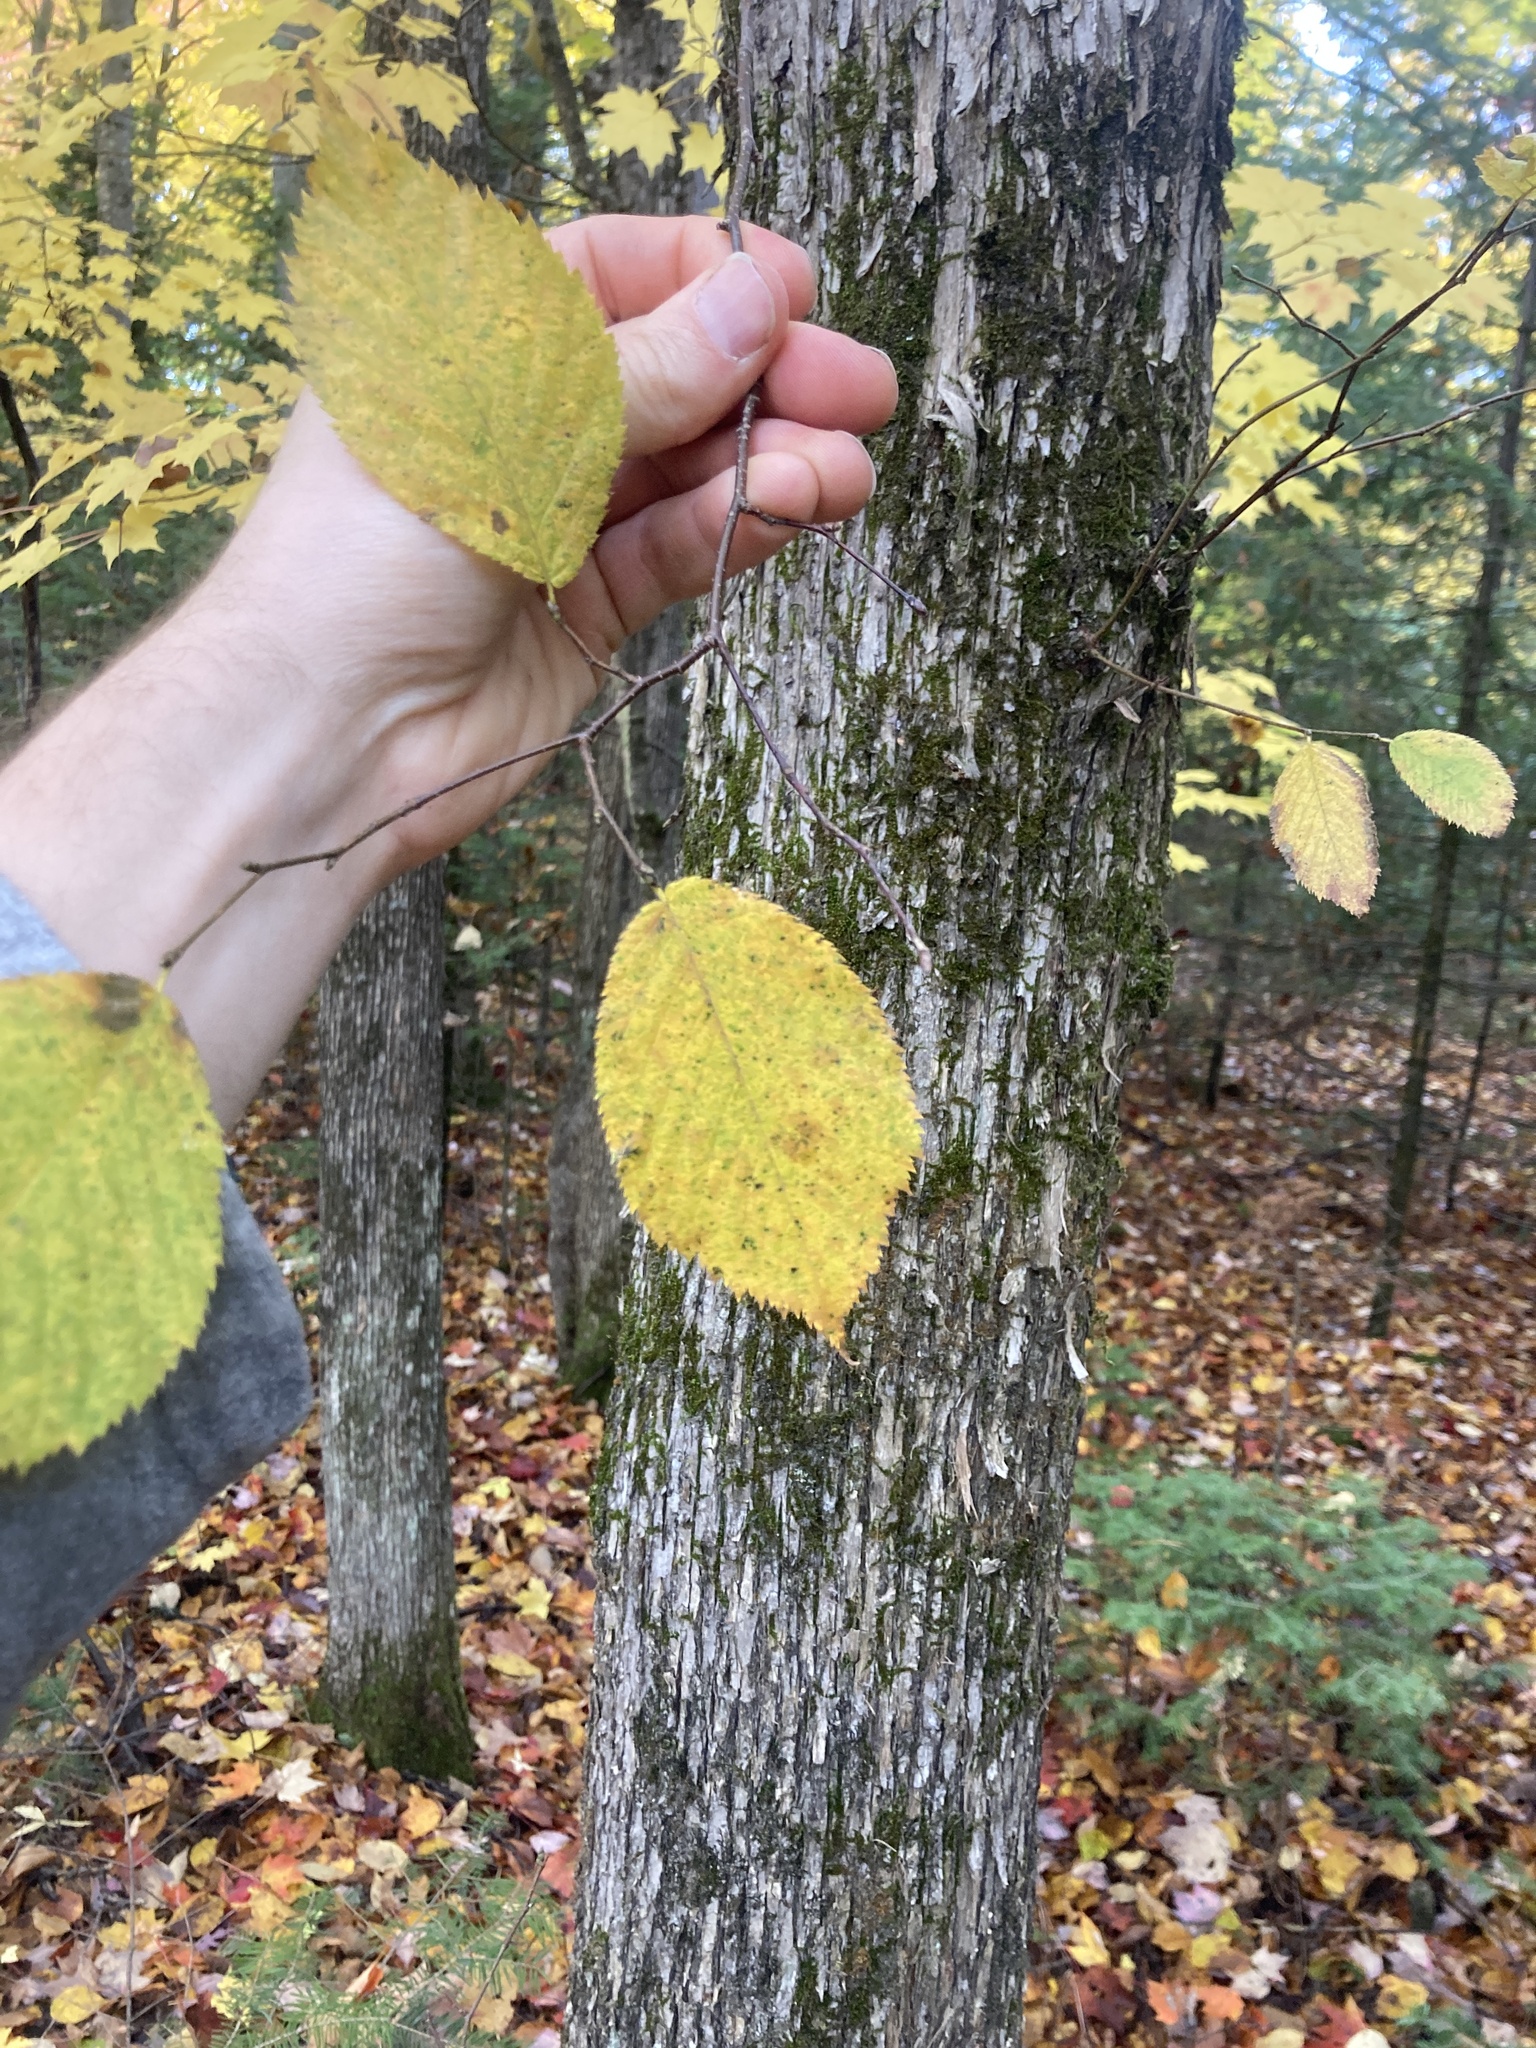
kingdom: Plantae
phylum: Tracheophyta
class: Magnoliopsida
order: Fagales
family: Betulaceae
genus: Ostrya
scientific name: Ostrya virginiana
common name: Ironwood
